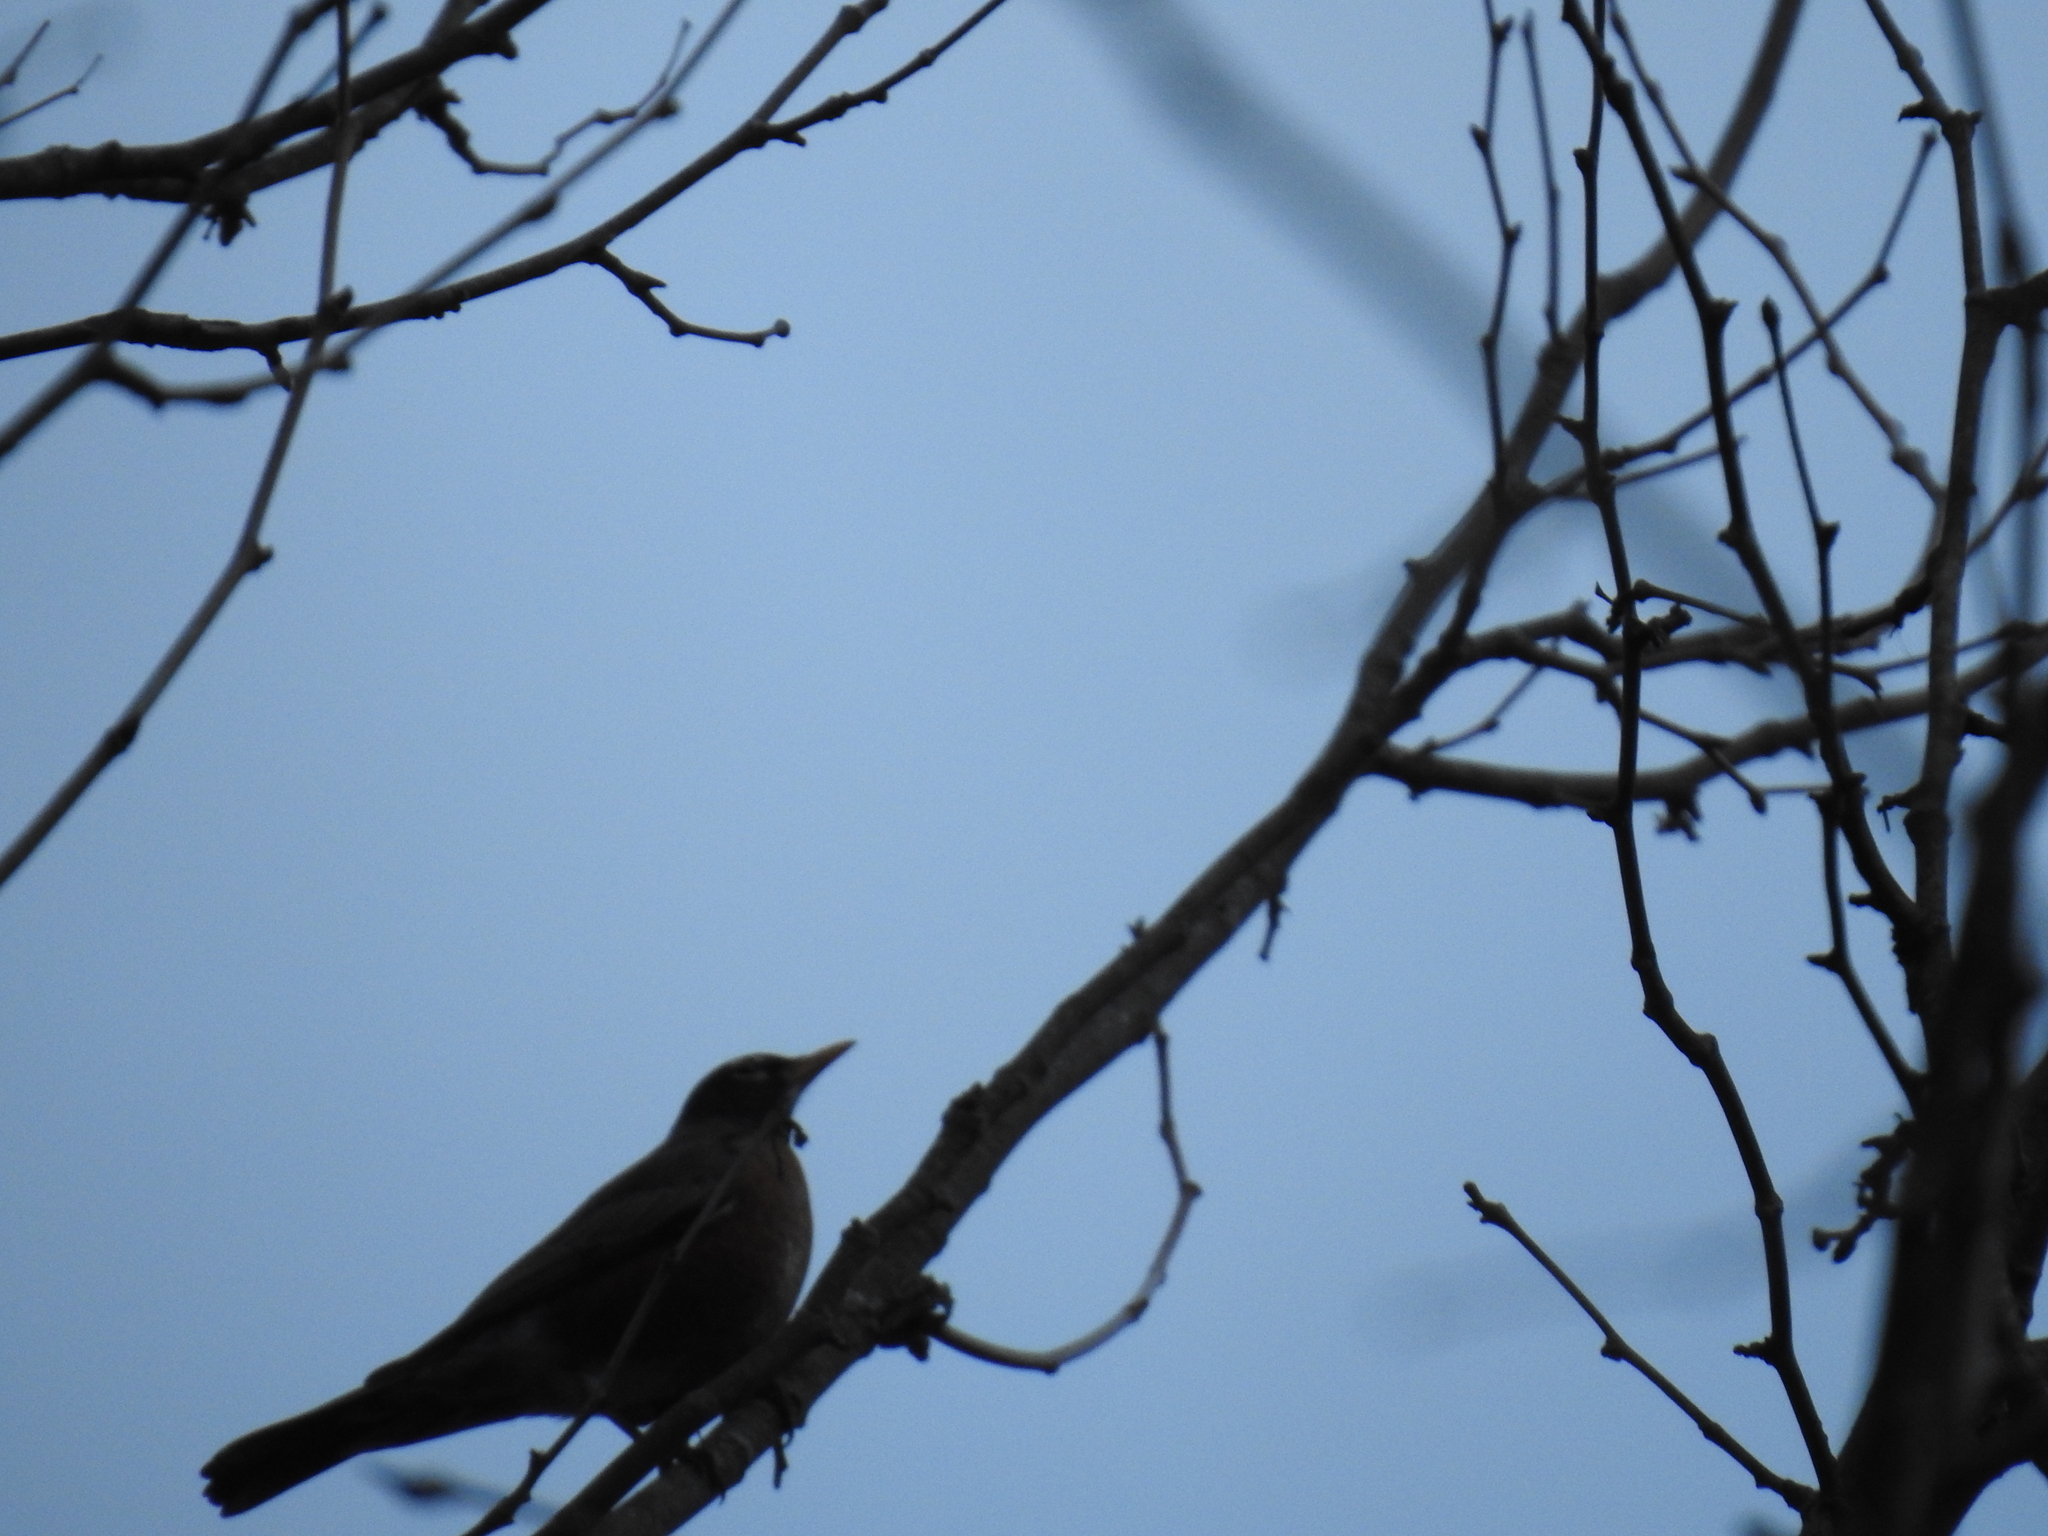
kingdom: Animalia
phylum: Chordata
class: Aves
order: Passeriformes
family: Turdidae
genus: Turdus
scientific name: Turdus migratorius
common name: American robin
